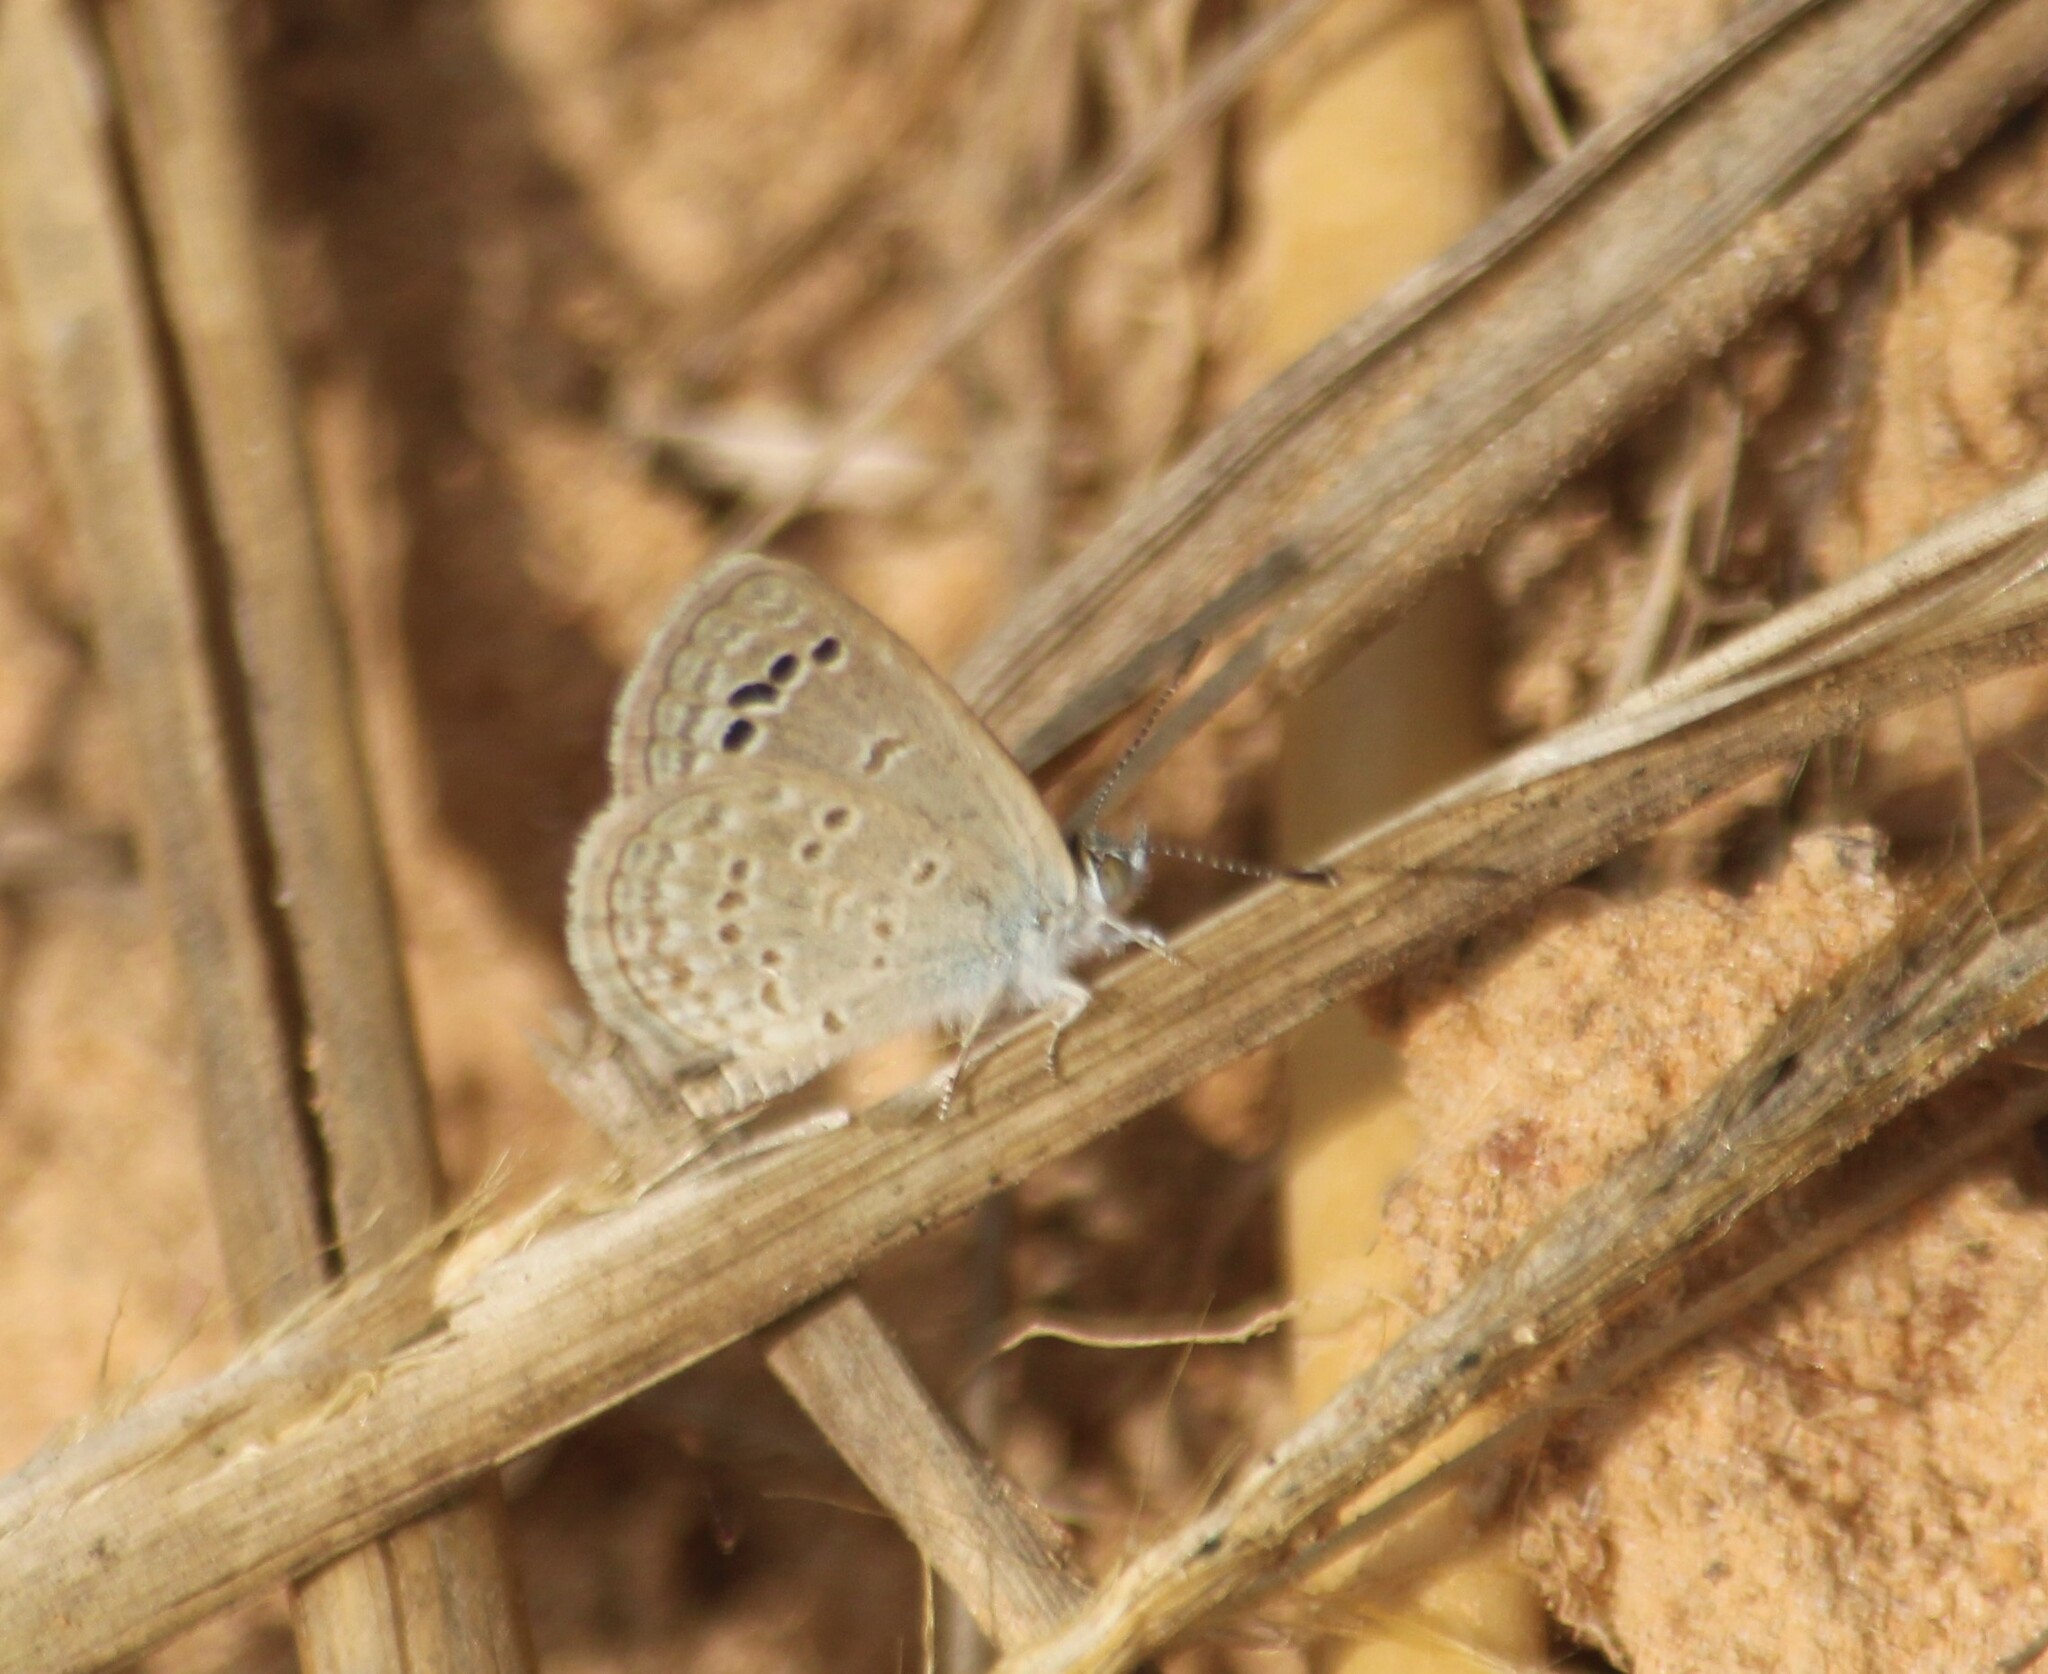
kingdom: Animalia
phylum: Arthropoda
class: Insecta
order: Lepidoptera
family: Lycaenidae
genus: Zizina
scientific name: Zizina otis
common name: Lesser grass blue
